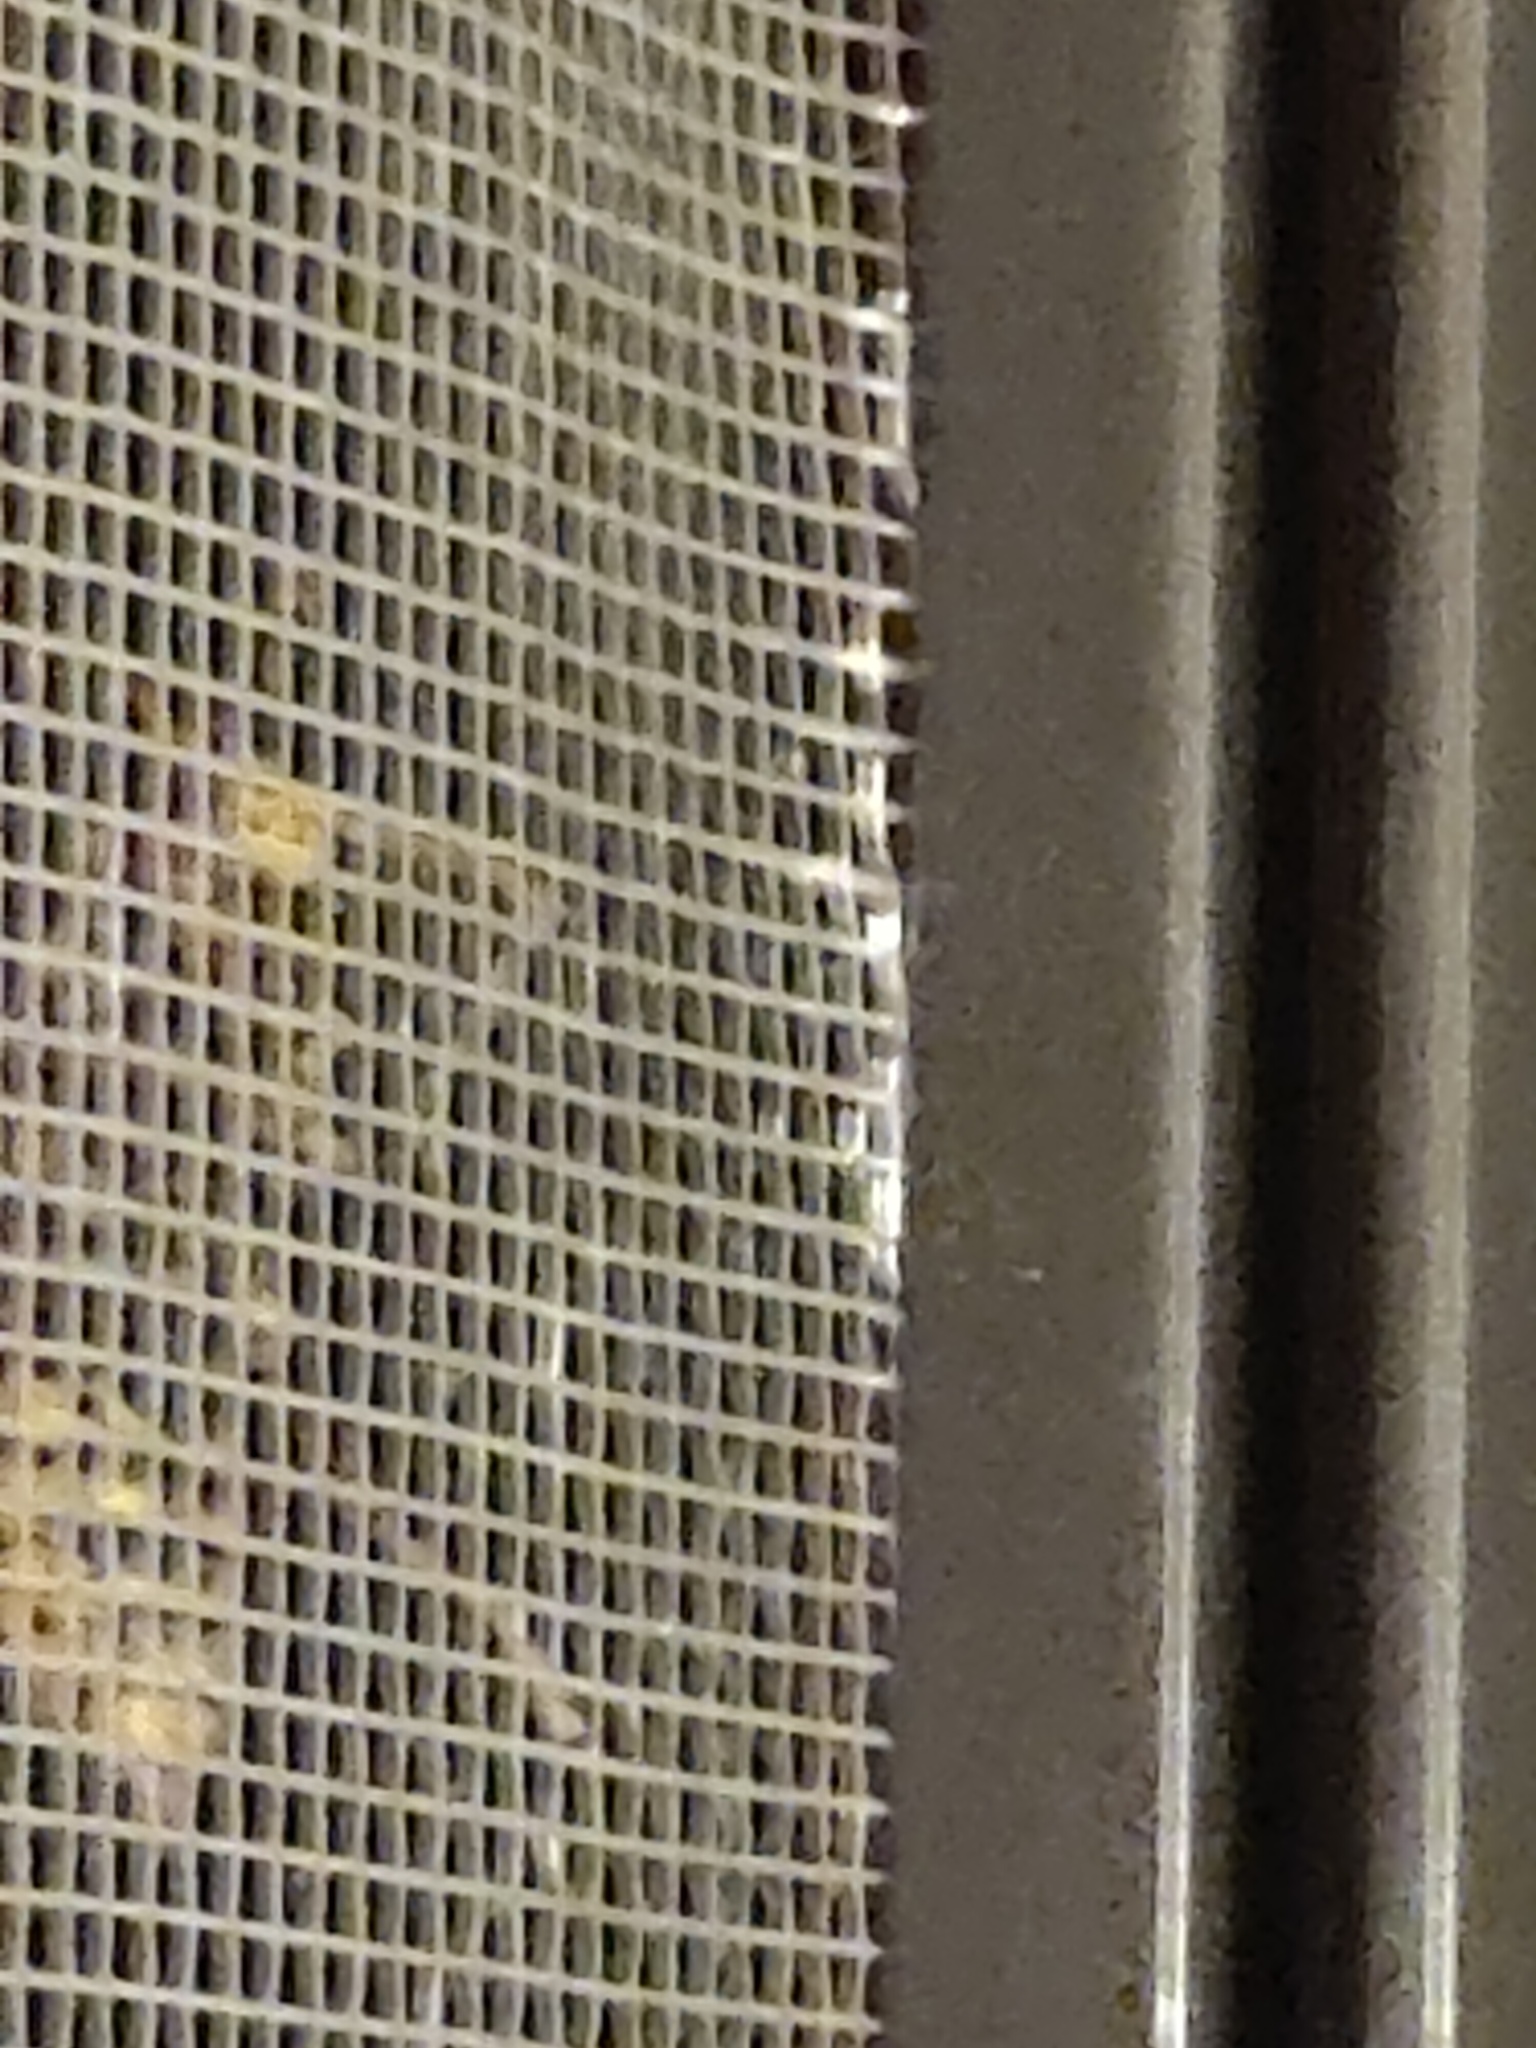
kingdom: Animalia
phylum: Arthropoda
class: Insecta
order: Hymenoptera
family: Vespidae
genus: Vespa
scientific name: Vespa crabro
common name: Hornet
